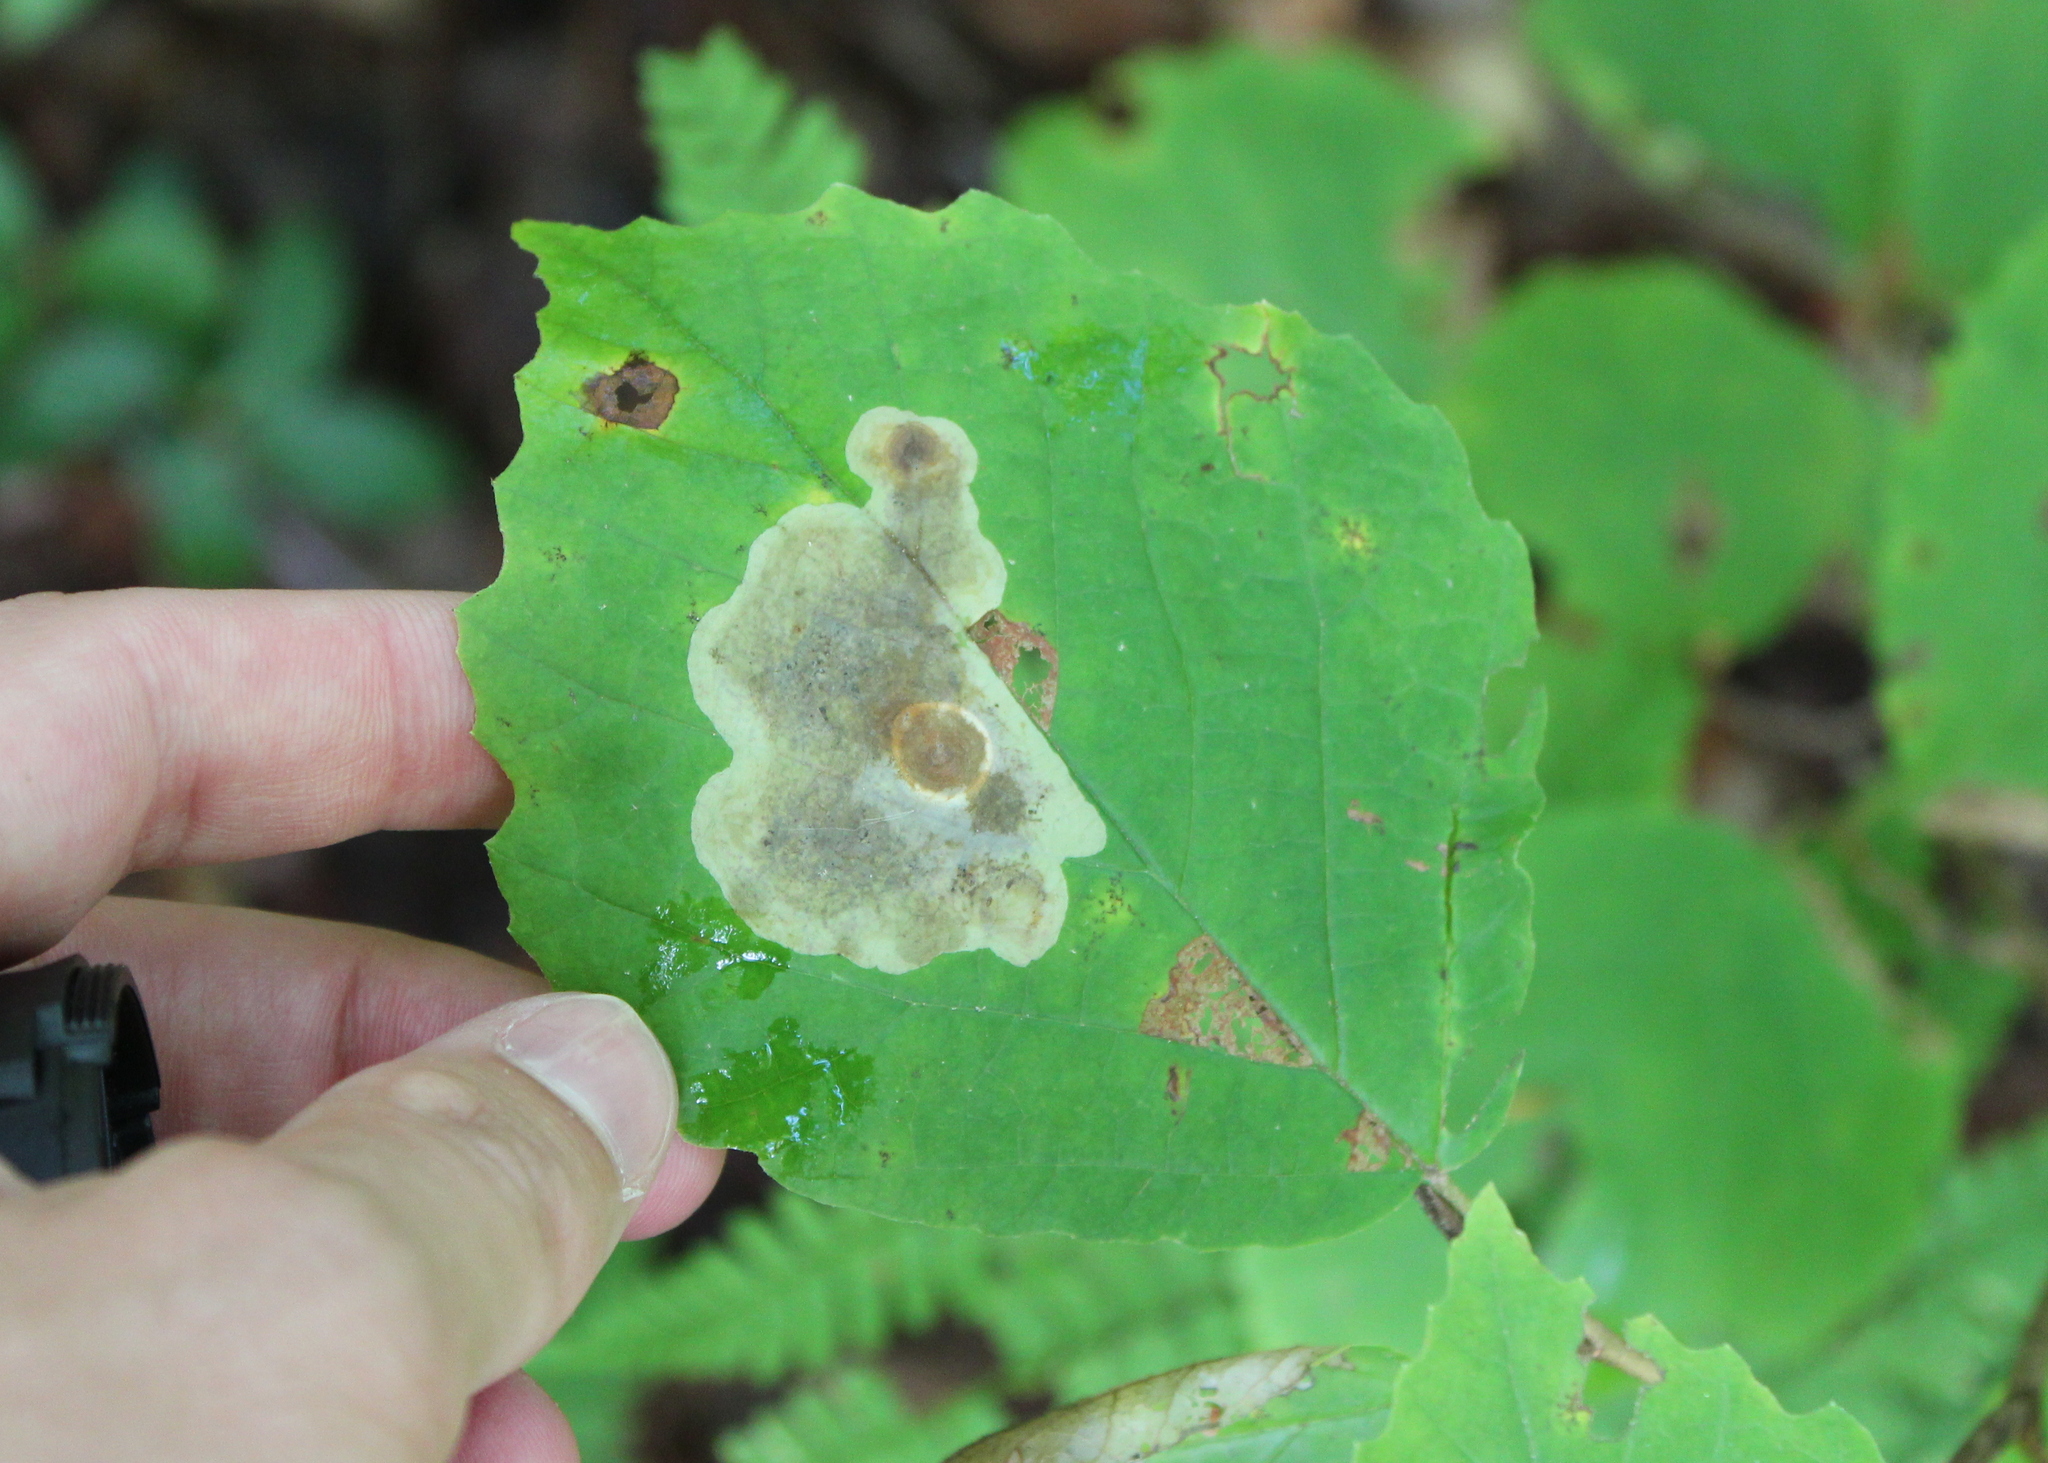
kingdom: Animalia
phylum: Arthropoda
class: Insecta
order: Lepidoptera
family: Gracillariidae
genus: Cameraria
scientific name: Cameraria hamameliella
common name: Witchhazel leafminer
